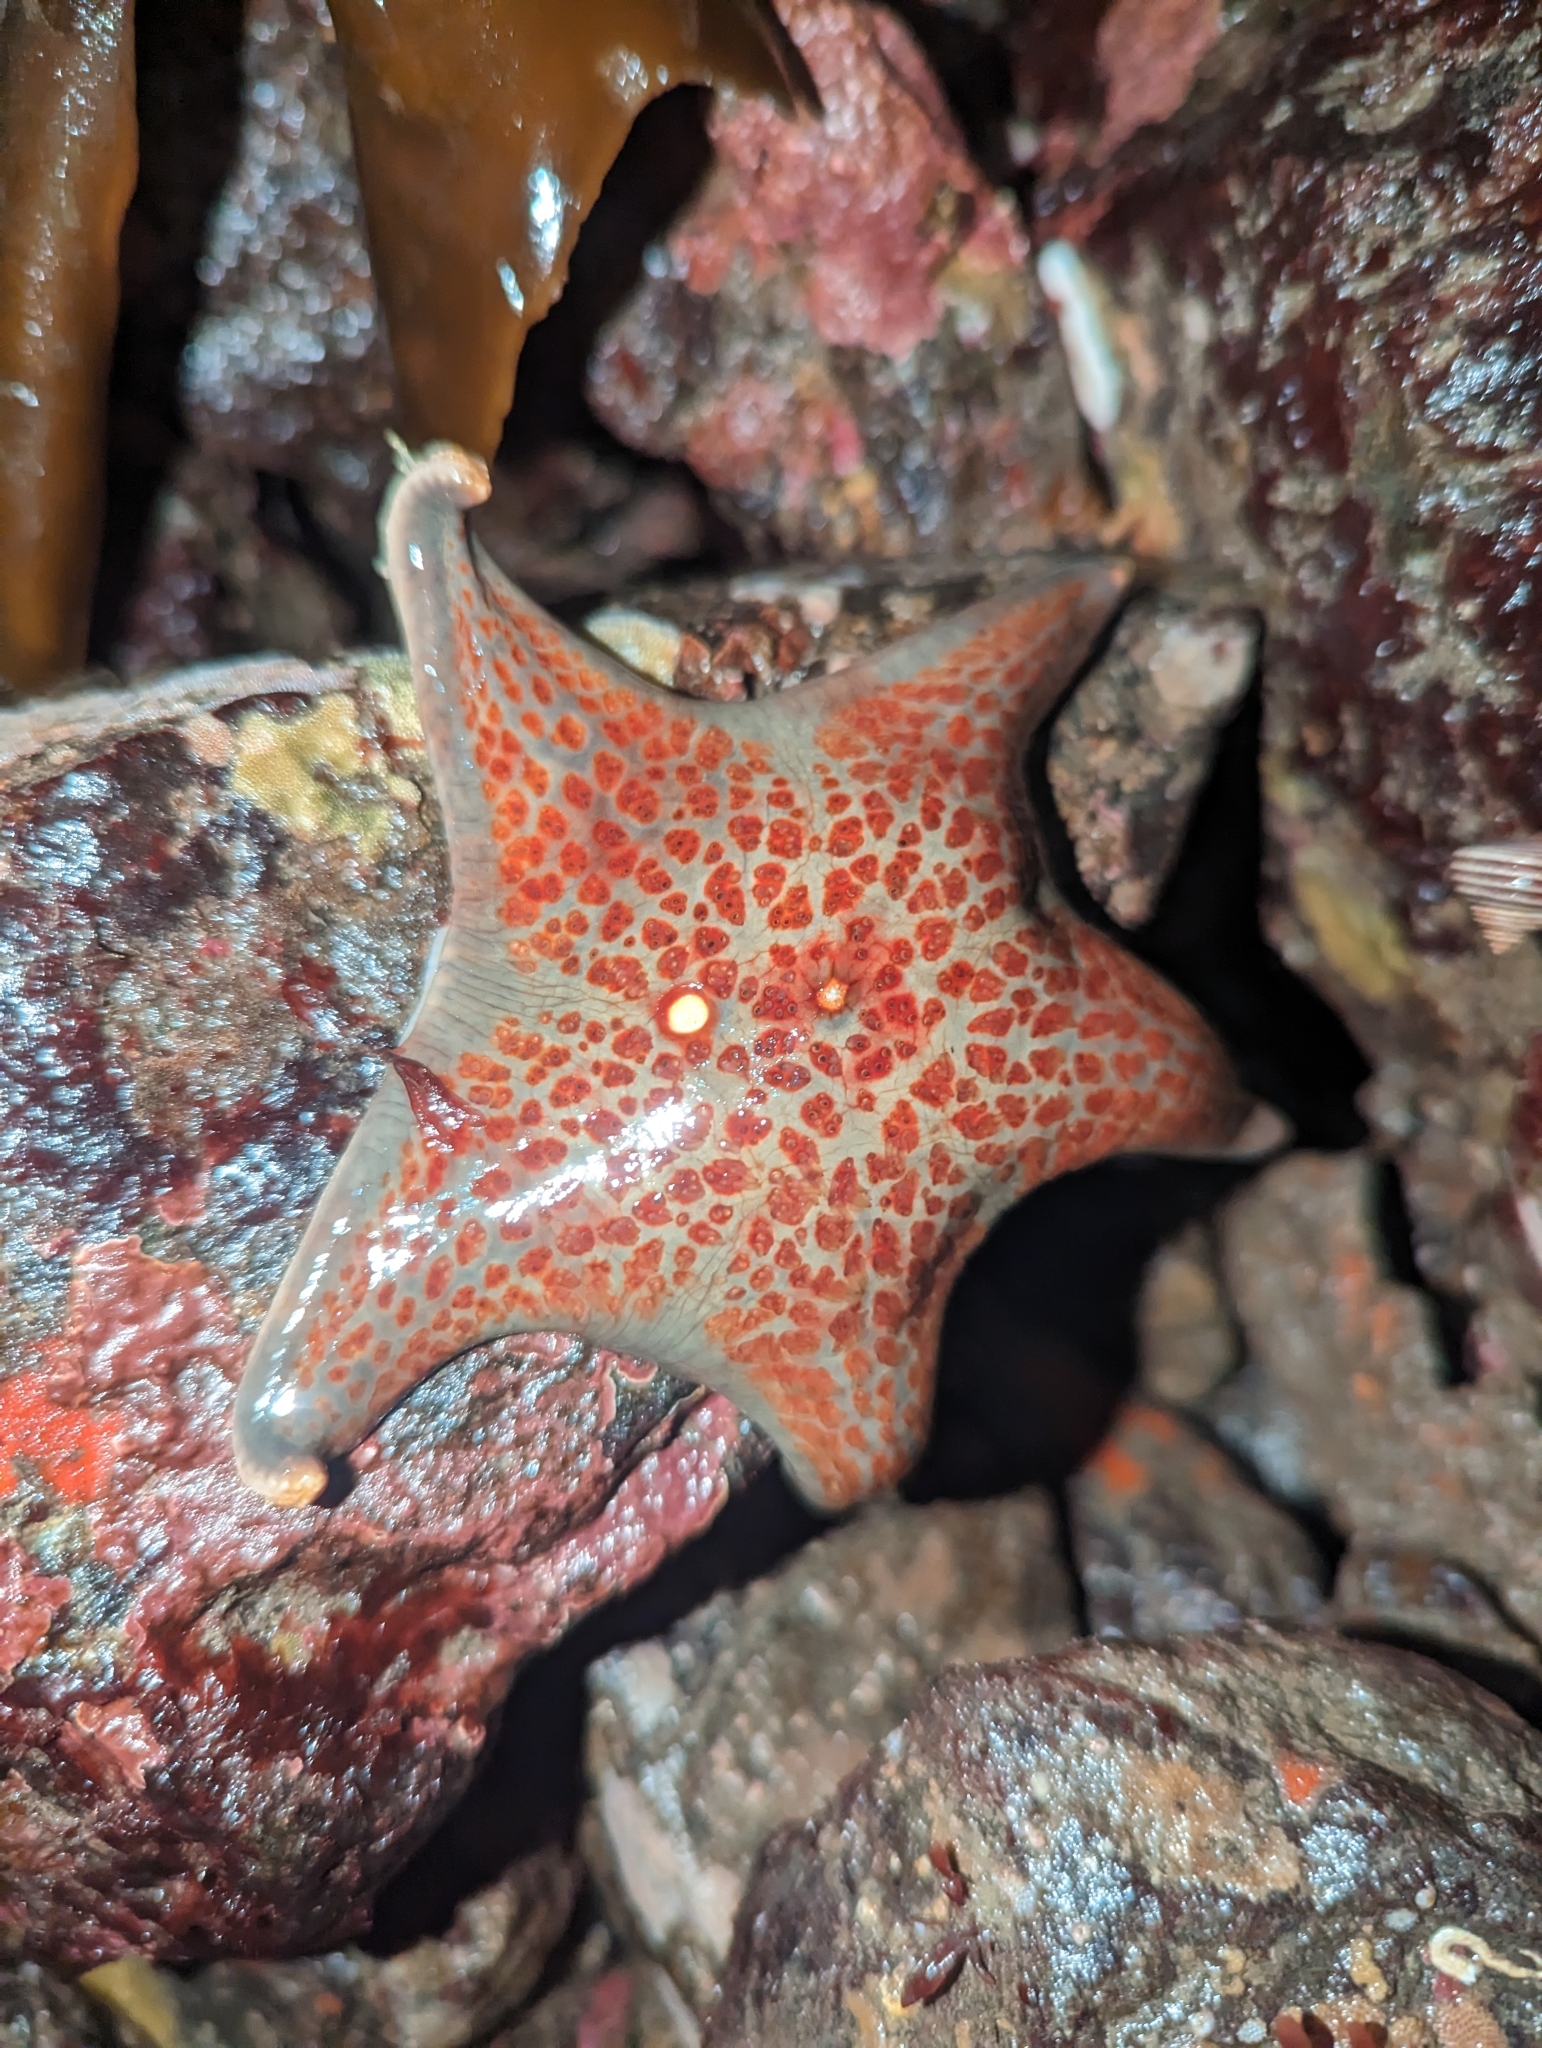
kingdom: Animalia
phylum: Echinodermata
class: Asteroidea
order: Valvatida
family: Asteropseidae
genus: Dermasterias
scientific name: Dermasterias imbricata
